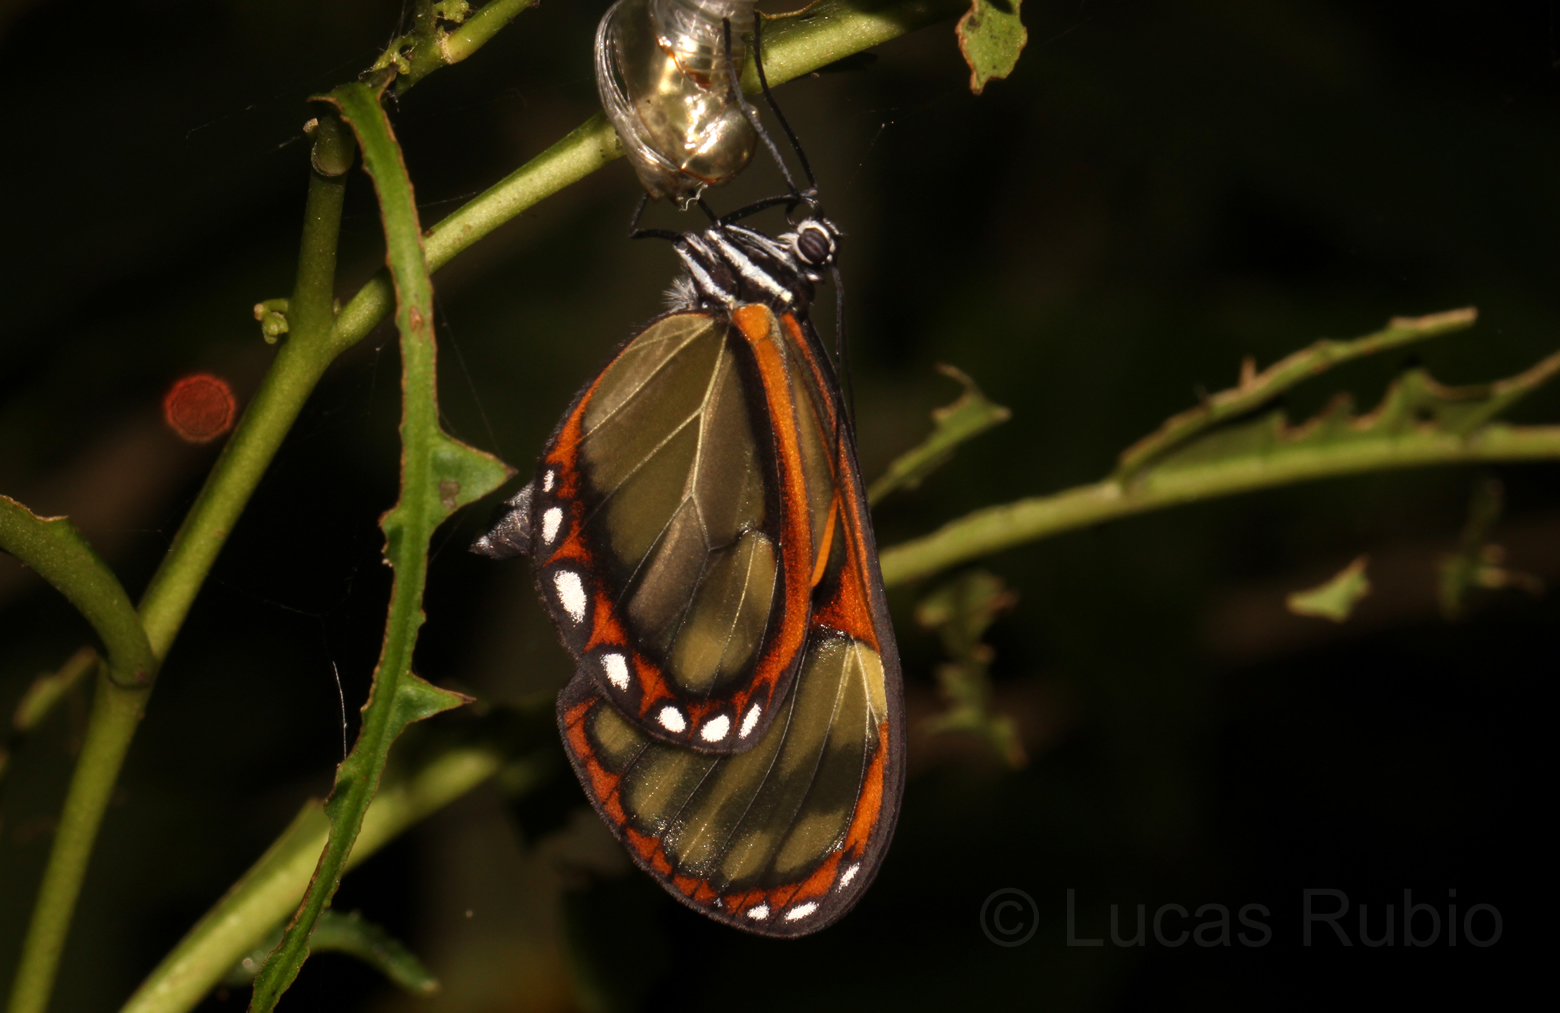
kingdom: Animalia
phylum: Arthropoda
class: Insecta
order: Lepidoptera
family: Nymphalidae
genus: Pteronymia
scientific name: Pteronymia ozia
